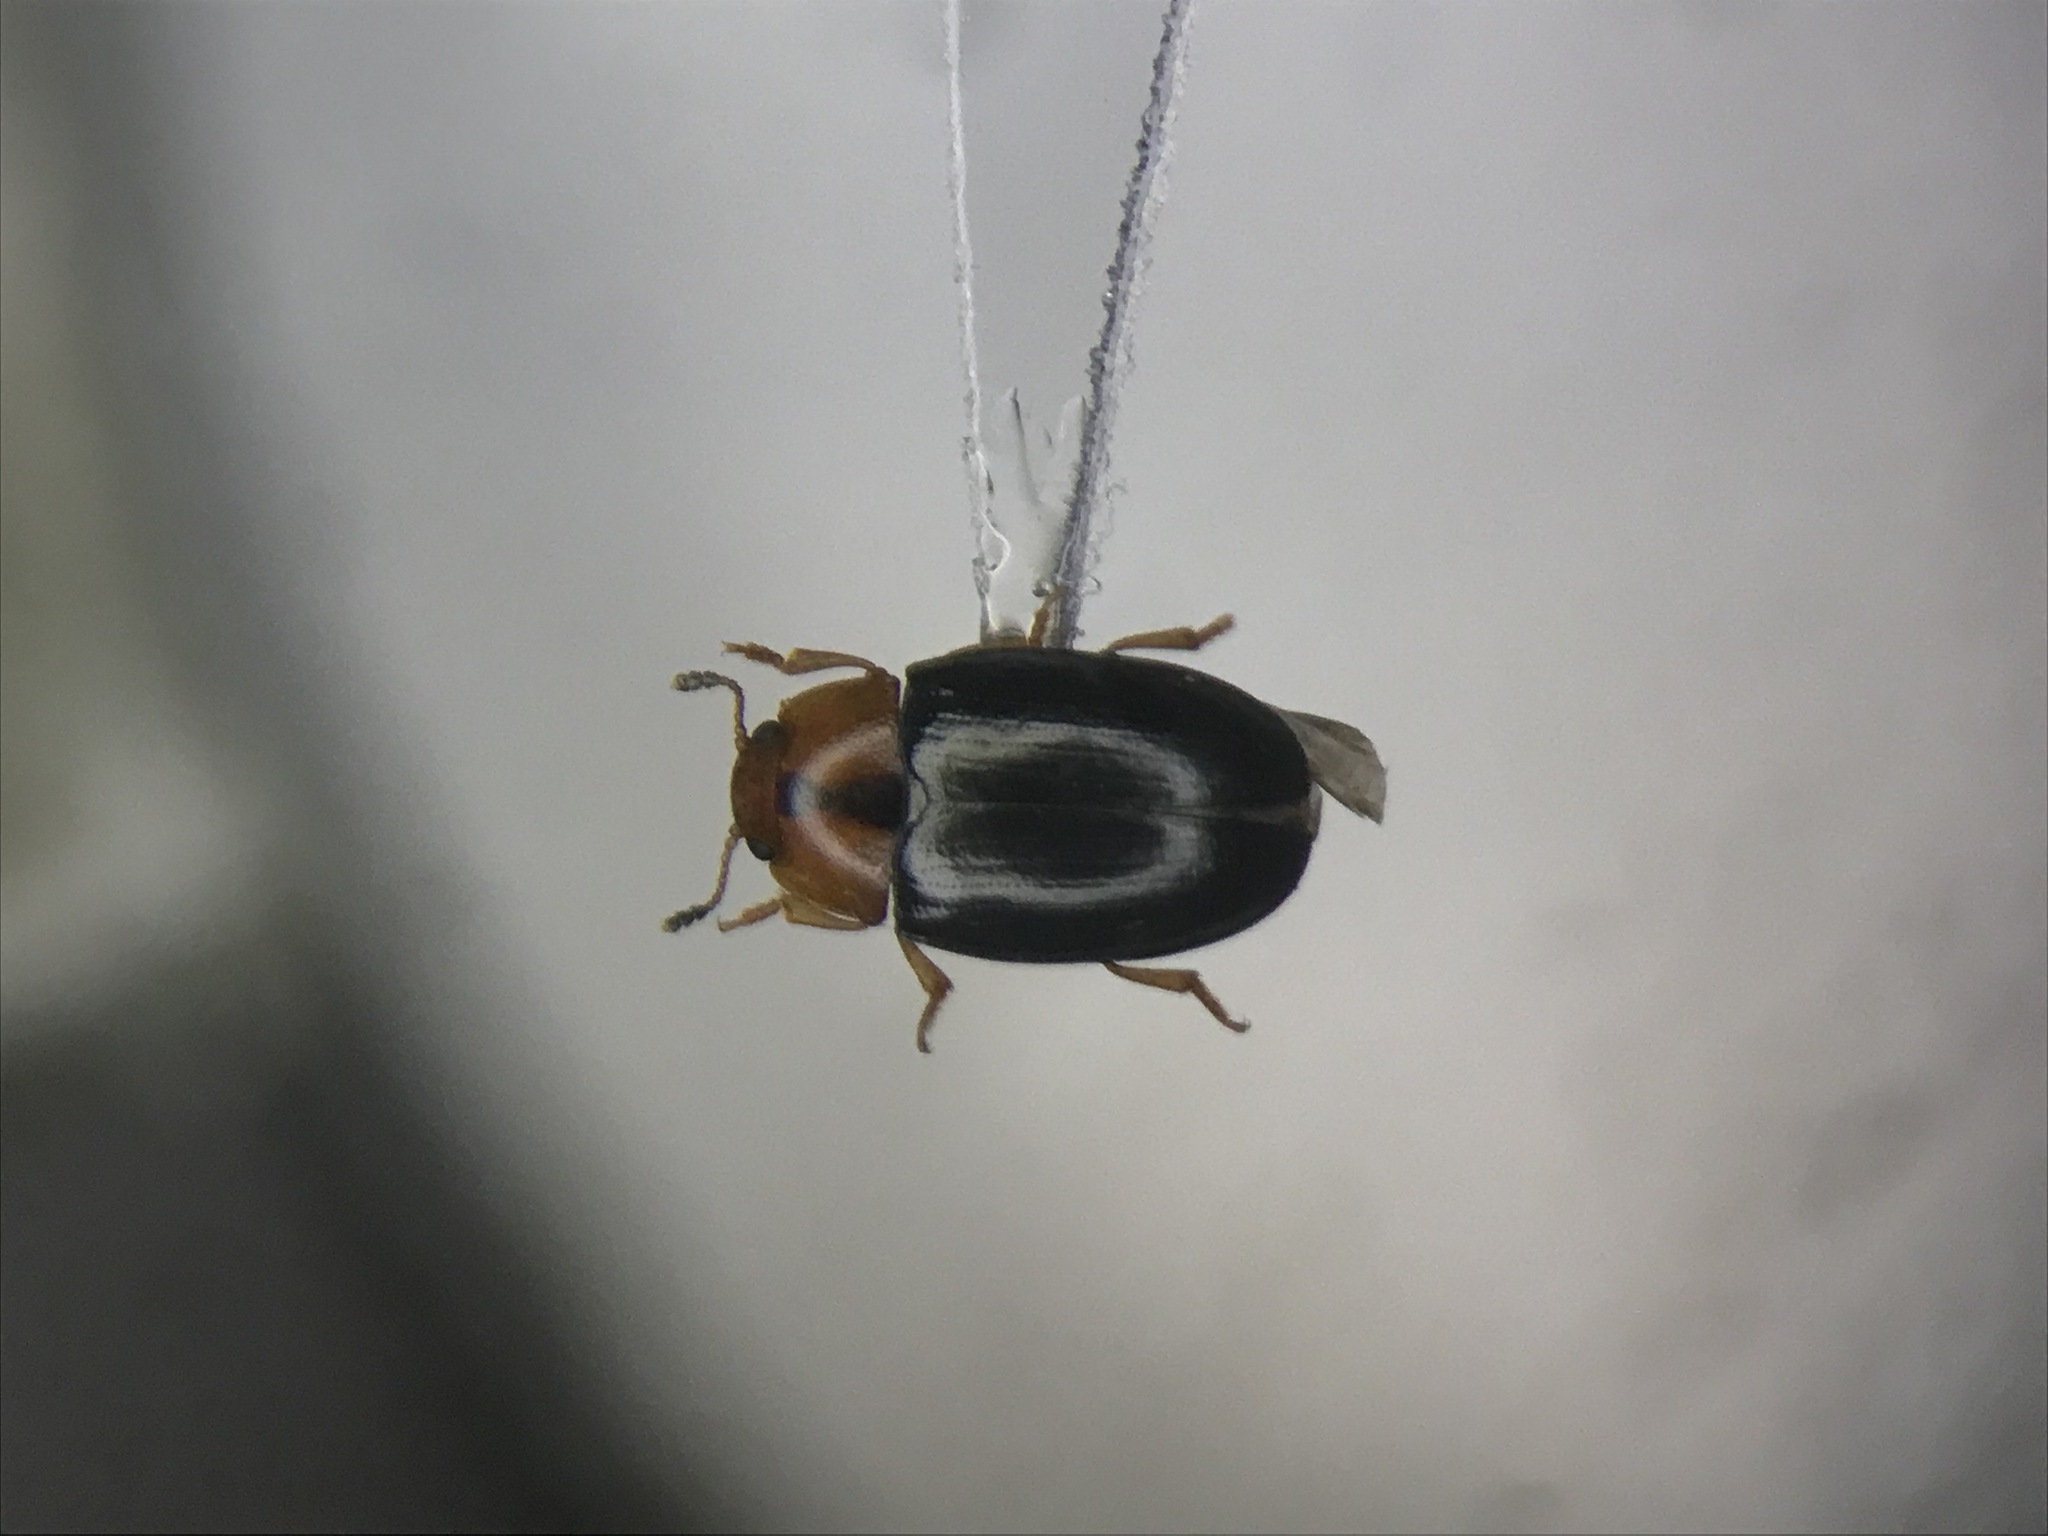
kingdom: Animalia
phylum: Arthropoda
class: Insecta
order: Coleoptera
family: Erotylidae
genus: Triplax
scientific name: Triplax dissimulator
